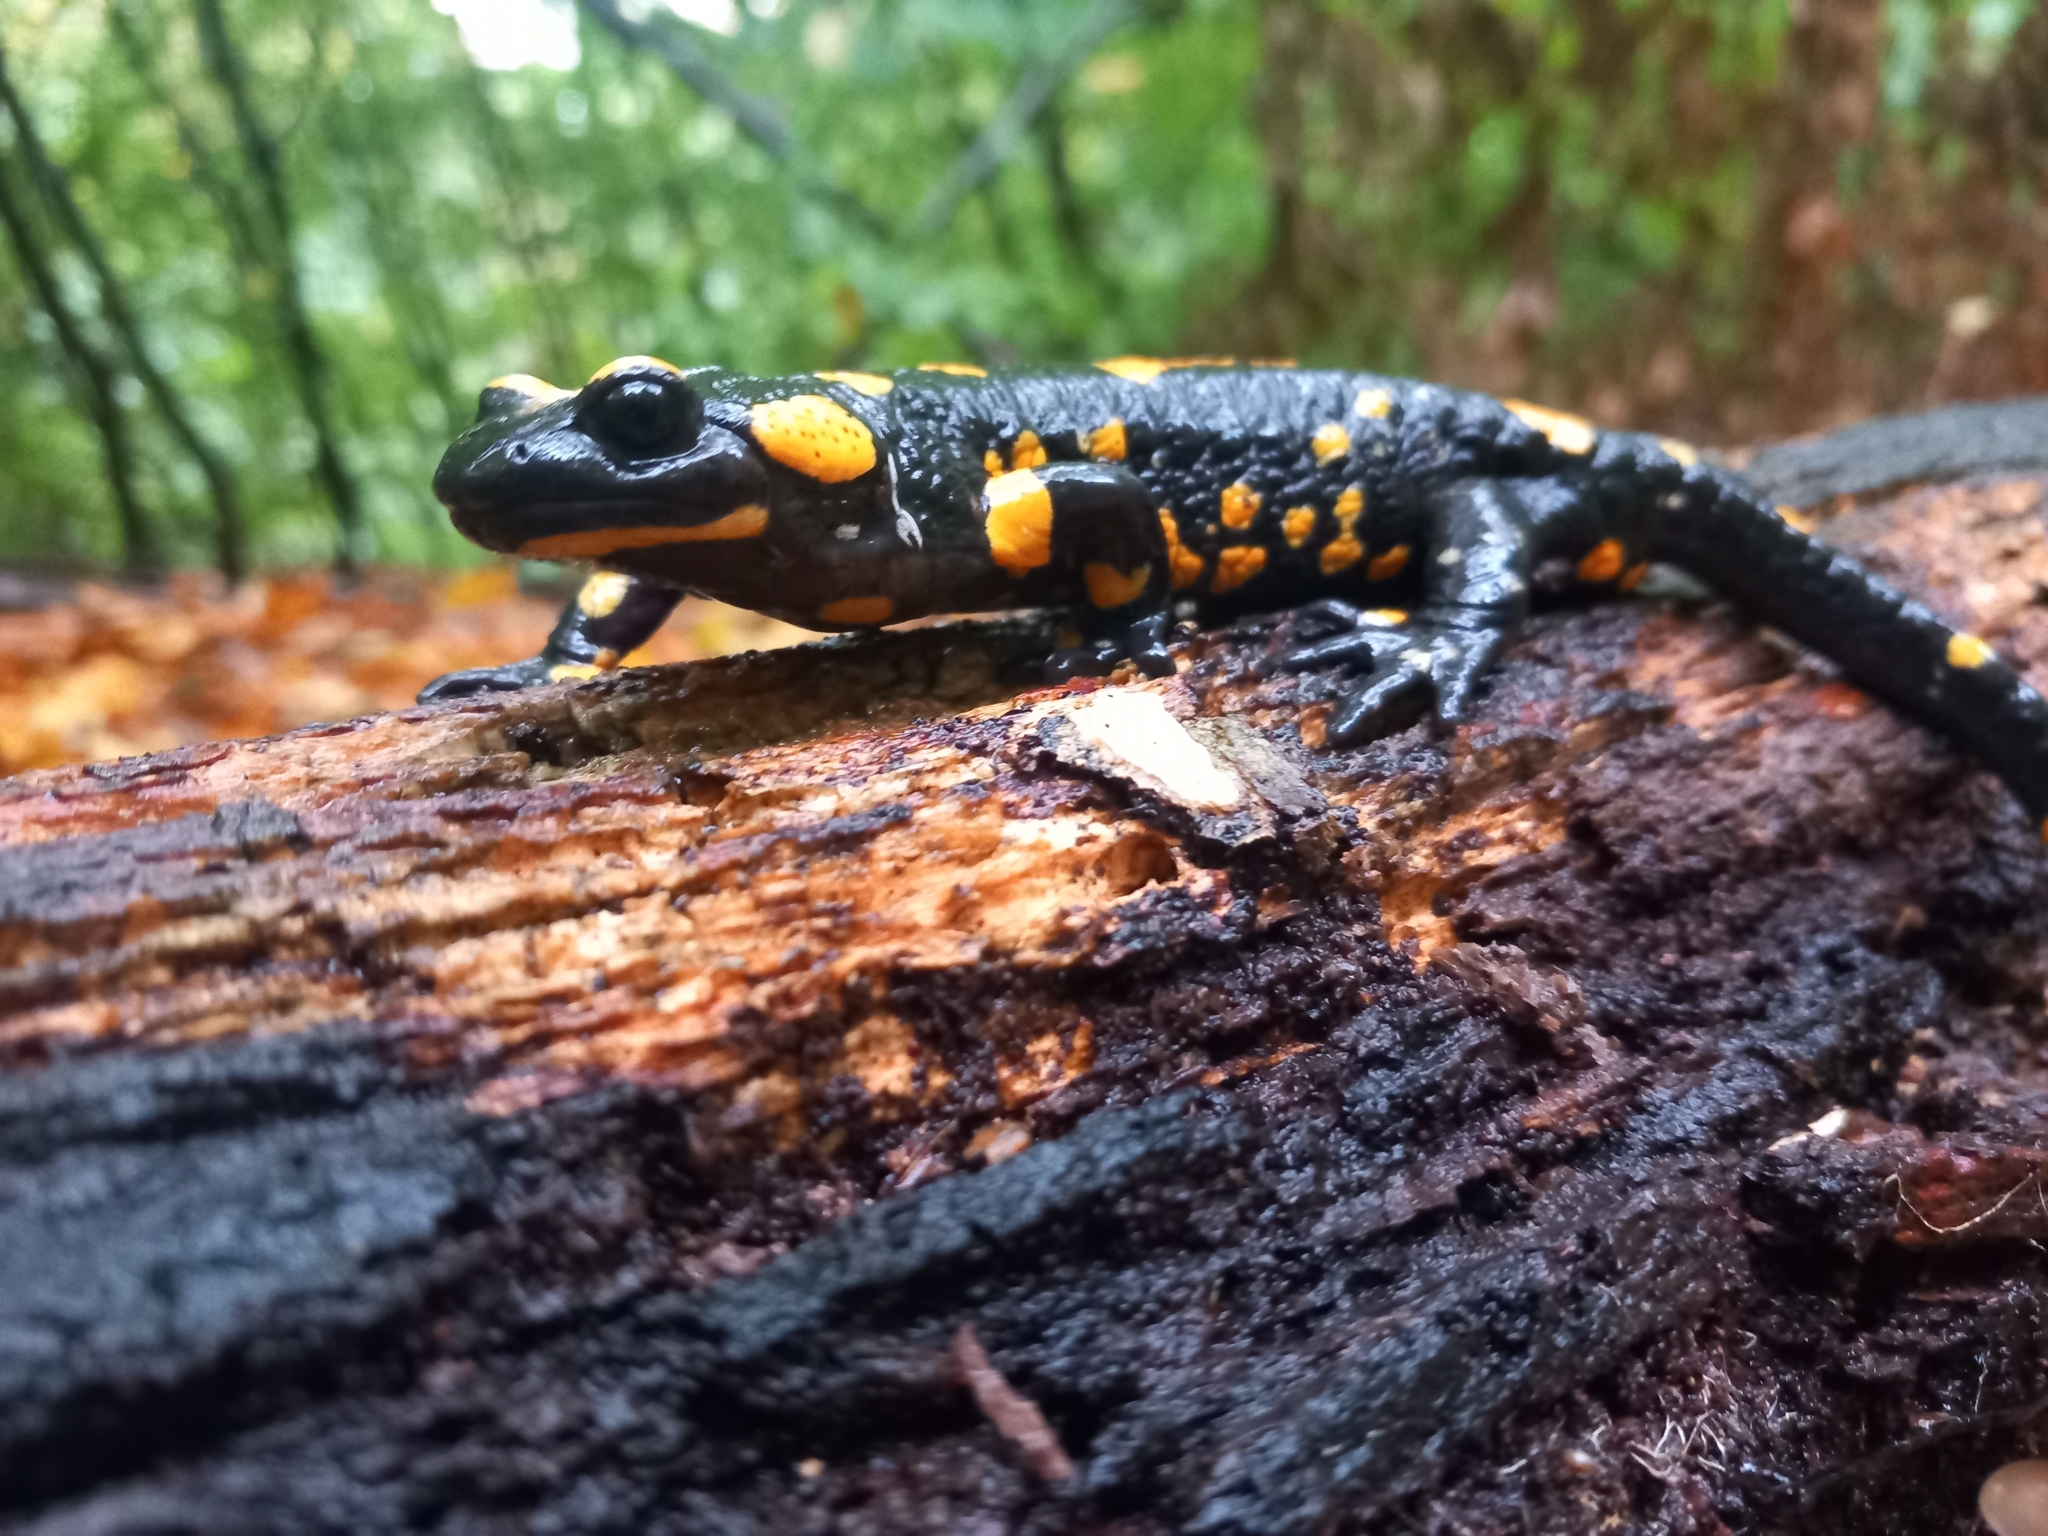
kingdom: Animalia
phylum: Chordata
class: Amphibia
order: Caudata
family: Salamandridae
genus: Salamandra
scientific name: Salamandra salamandra
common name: Fire salamander
